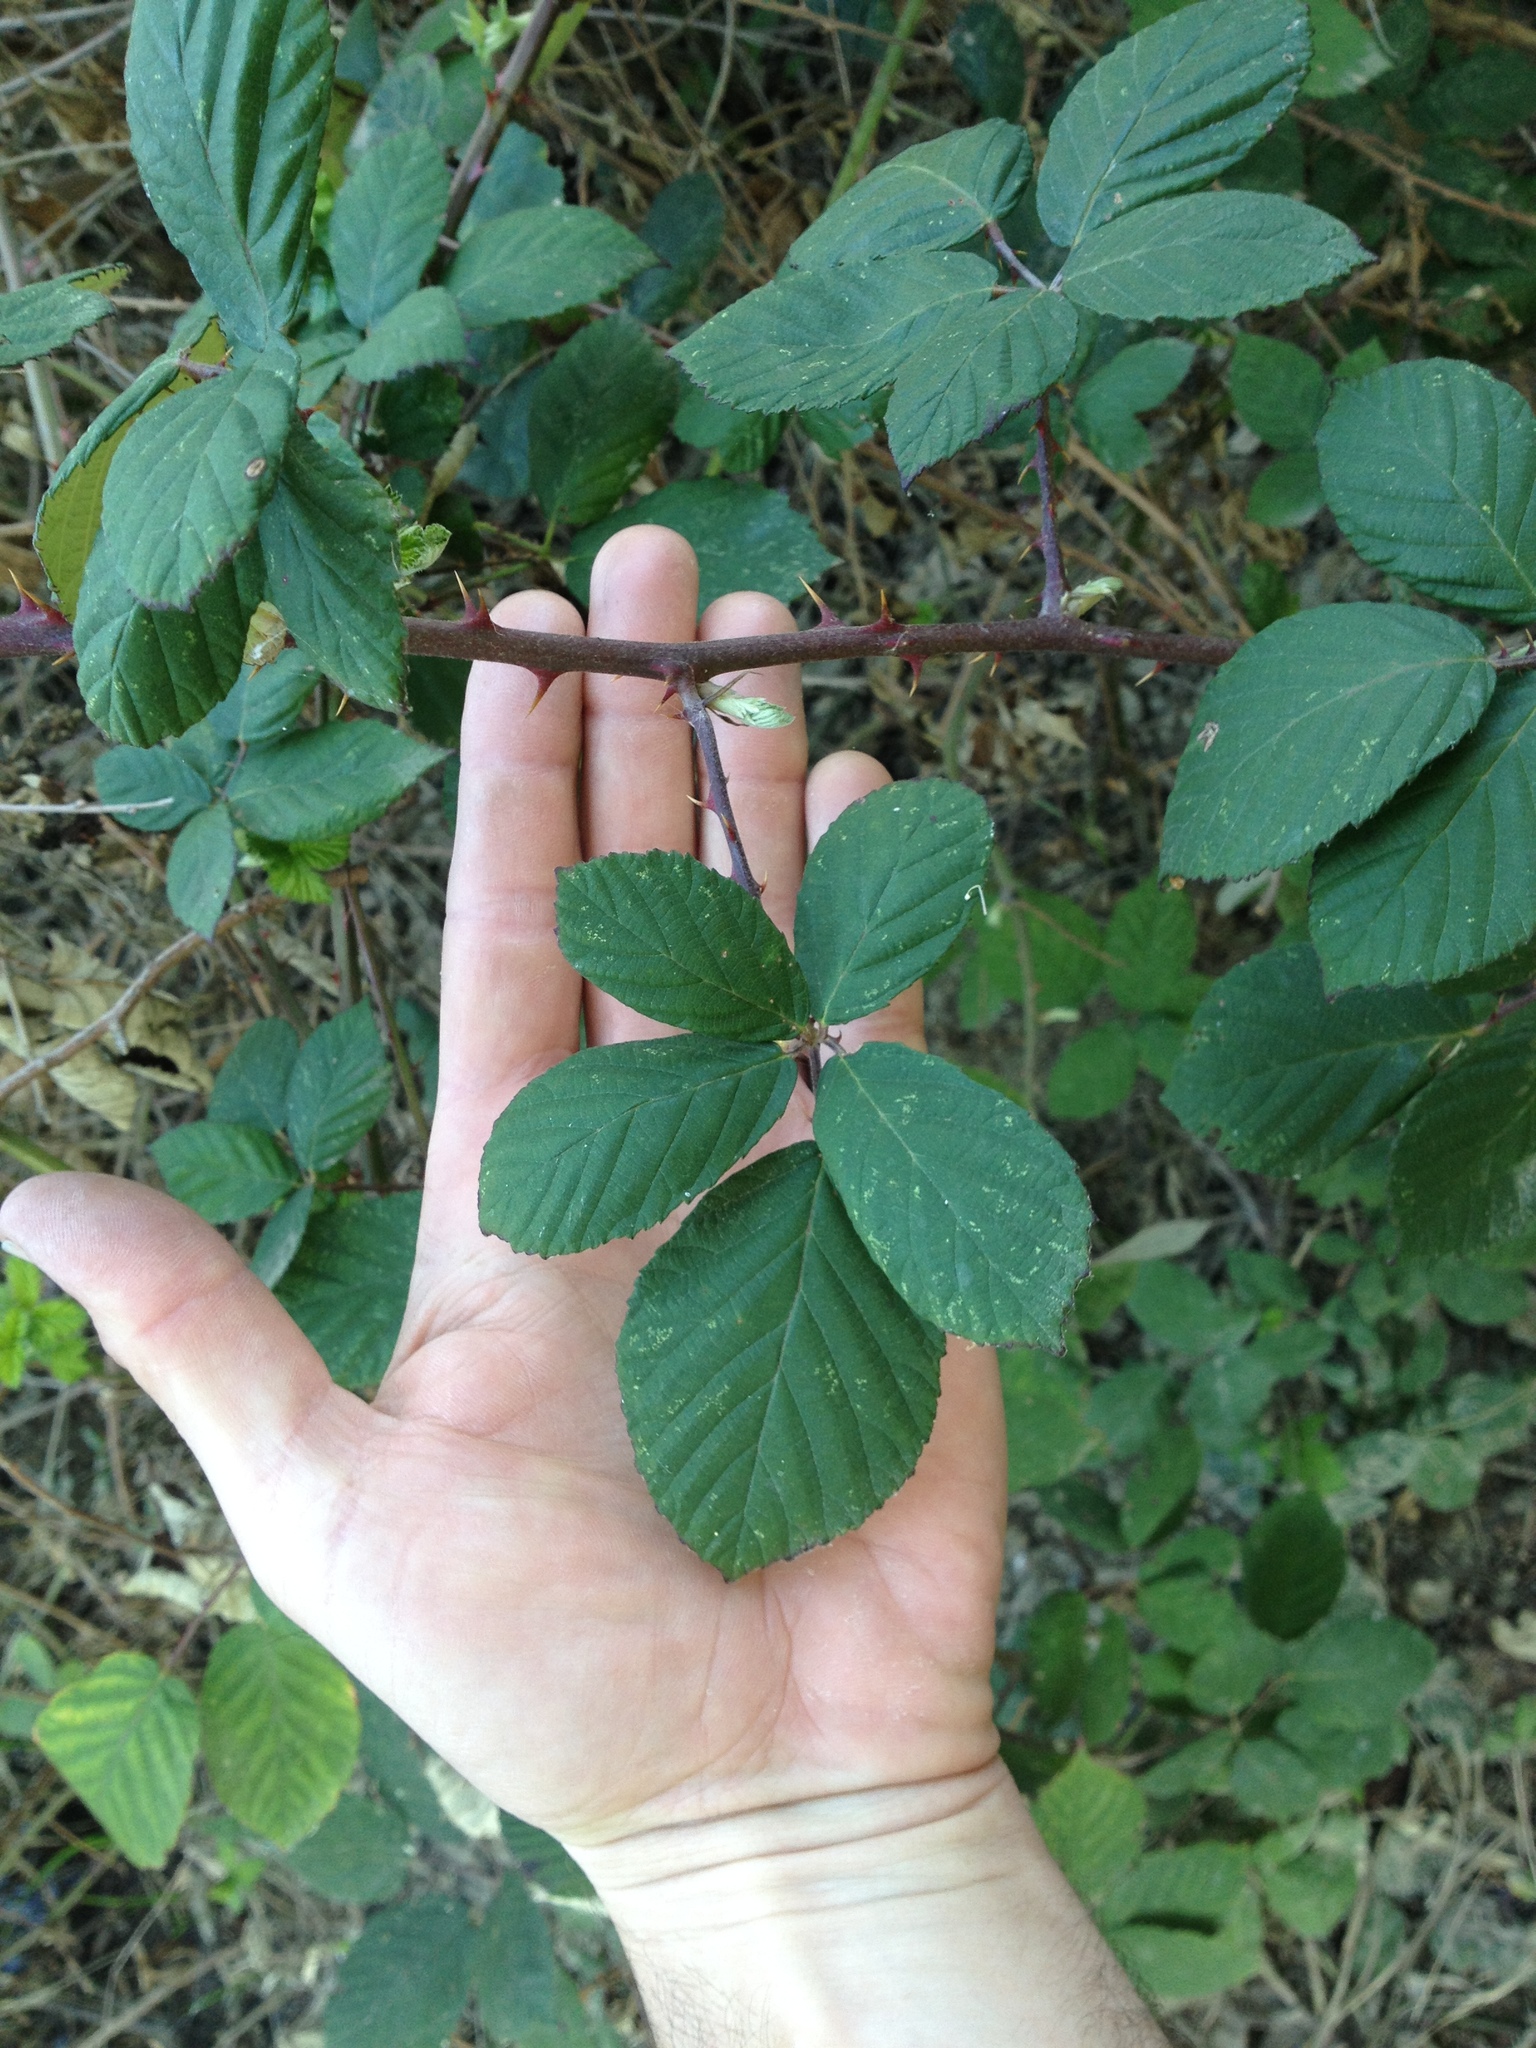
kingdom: Plantae
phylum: Tracheophyta
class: Magnoliopsida
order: Rosales
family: Rosaceae
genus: Rubus
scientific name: Rubus armeniacus
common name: Himalayan blackberry
